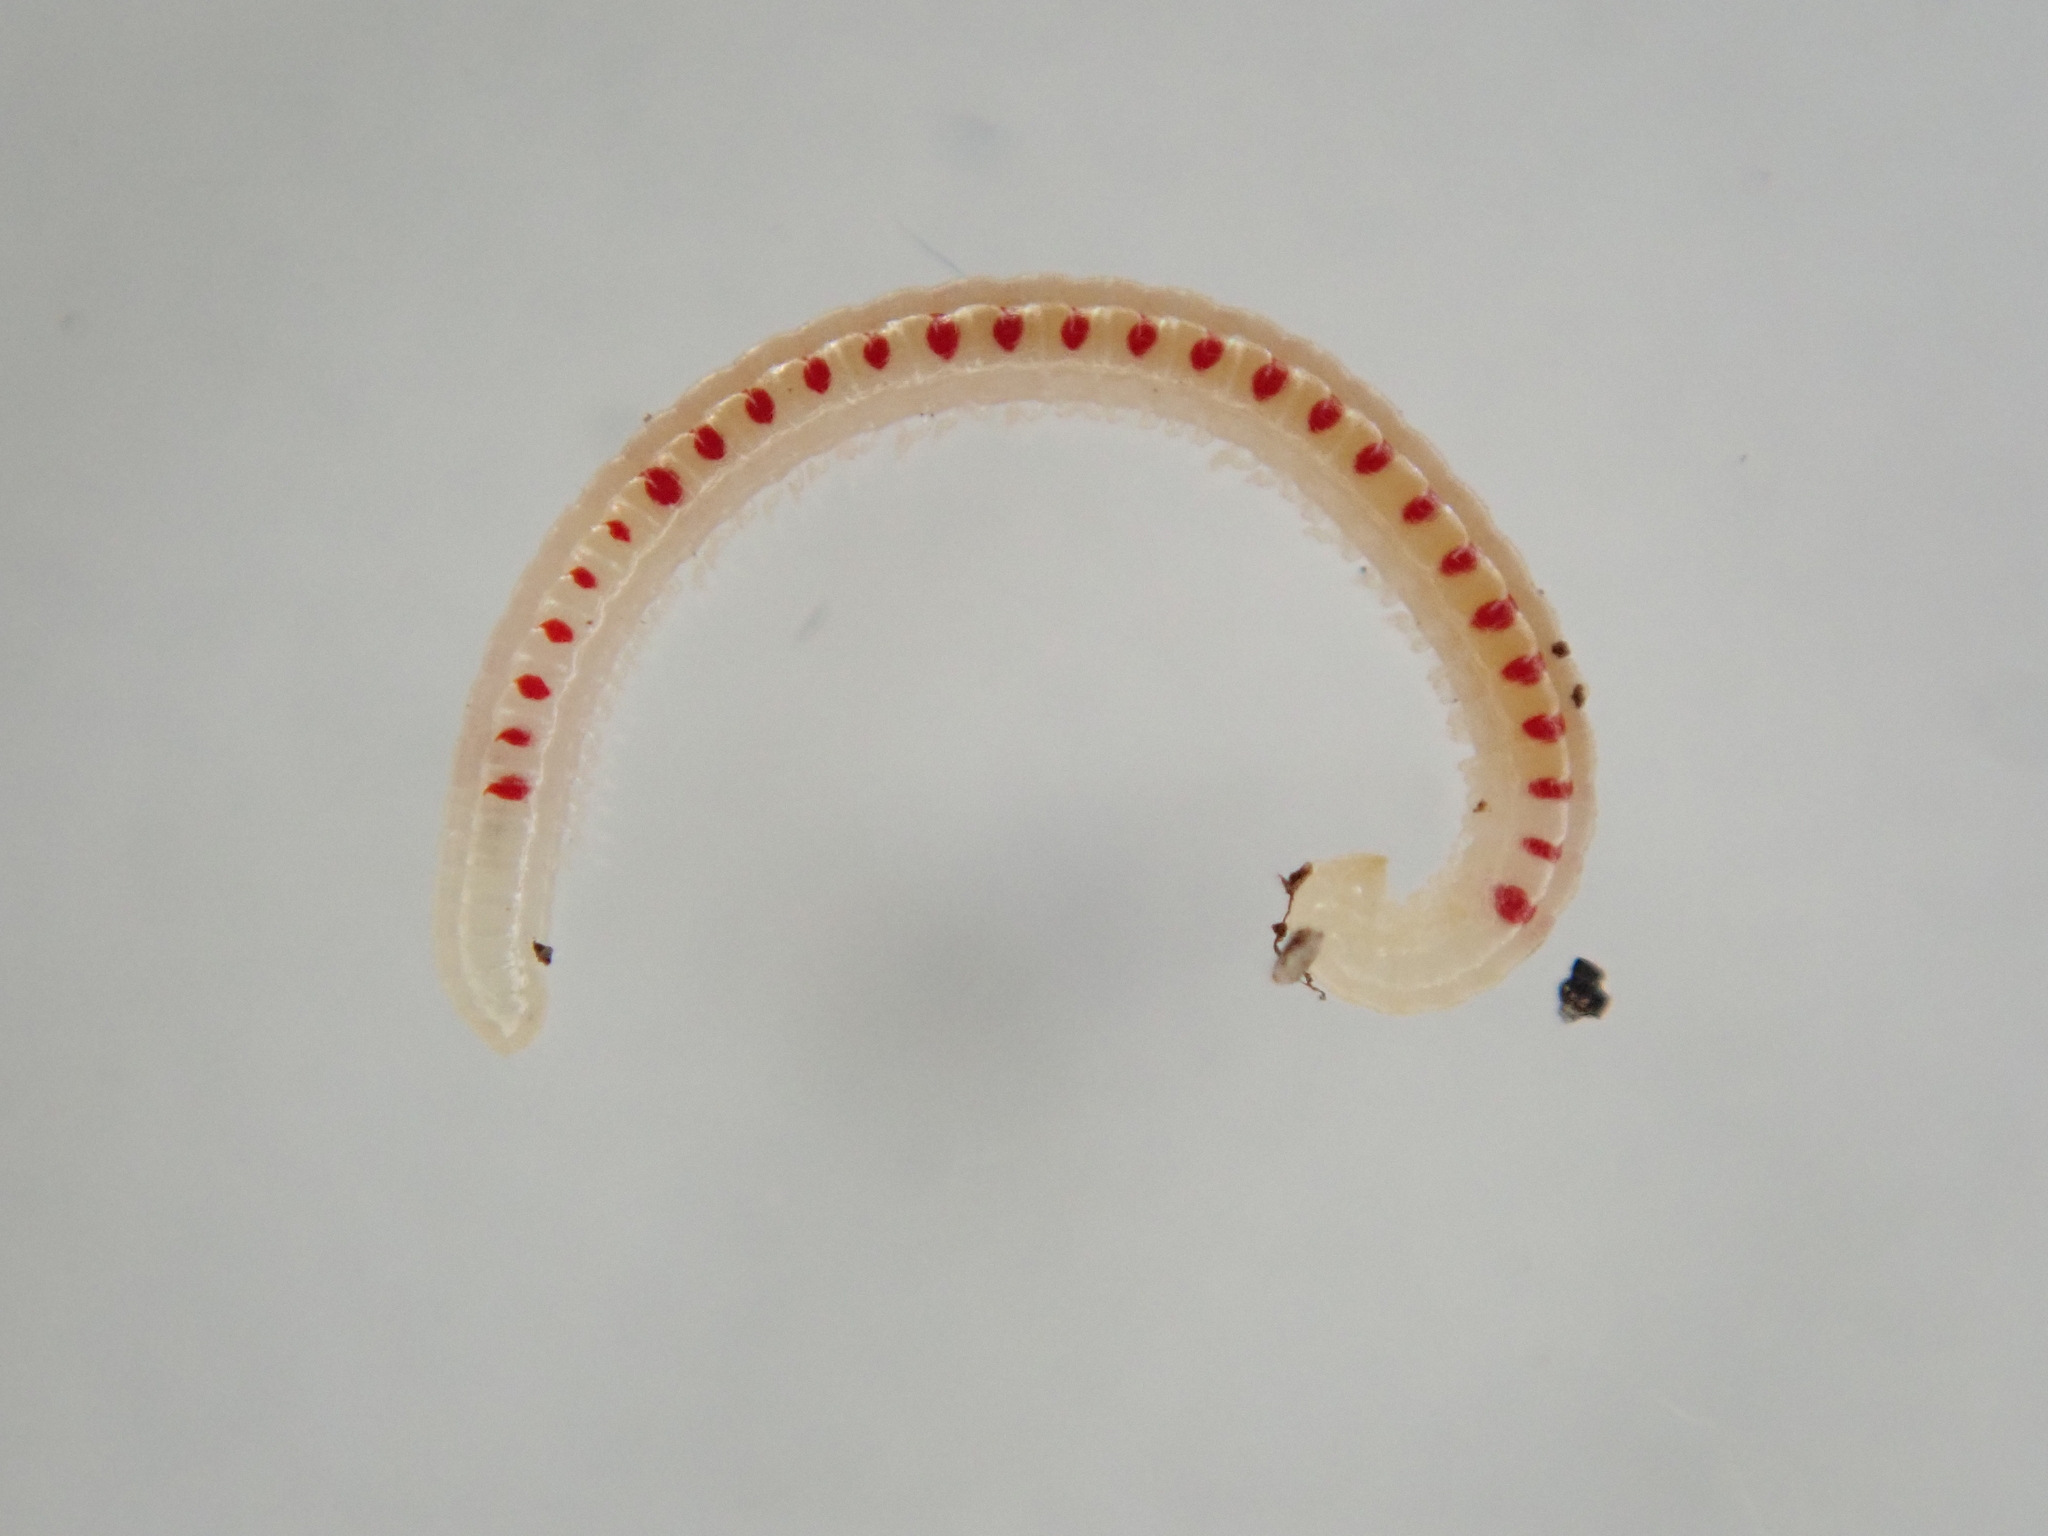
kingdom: Animalia
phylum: Arthropoda
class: Diplopoda
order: Julida
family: Blaniulidae
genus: Blaniulus
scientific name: Blaniulus guttulatus
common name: Spotted snake millipede
